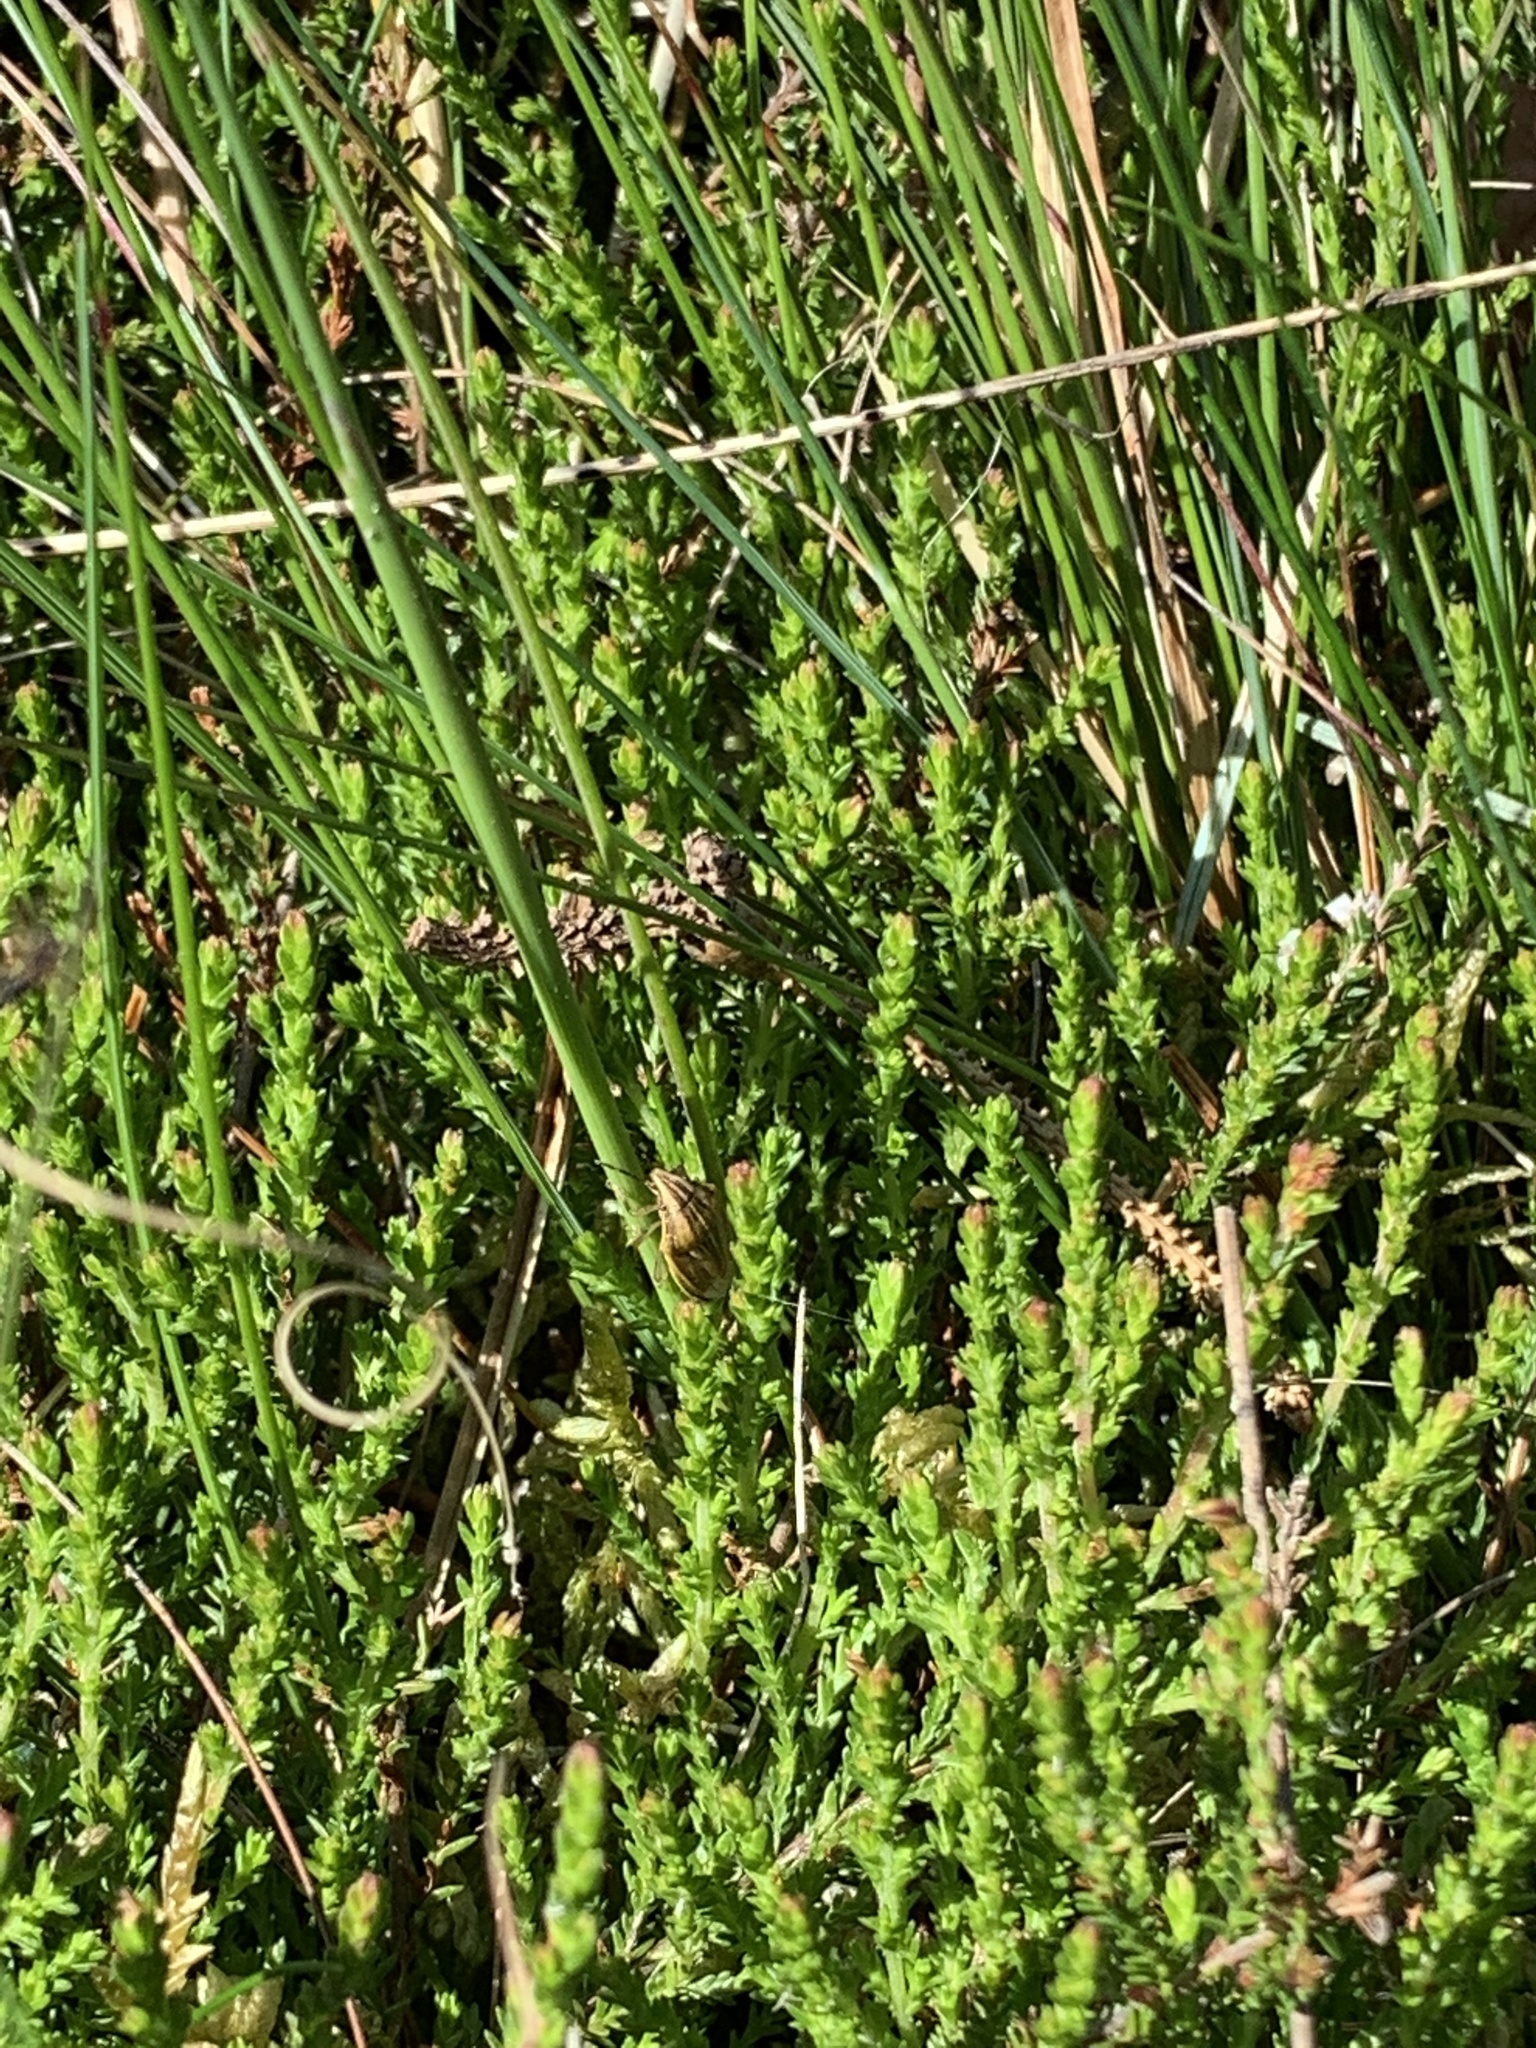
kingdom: Animalia
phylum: Arthropoda
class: Insecta
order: Hemiptera
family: Pentatomidae
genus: Aelia
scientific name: Aelia acuminata
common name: Bishop's mitre
